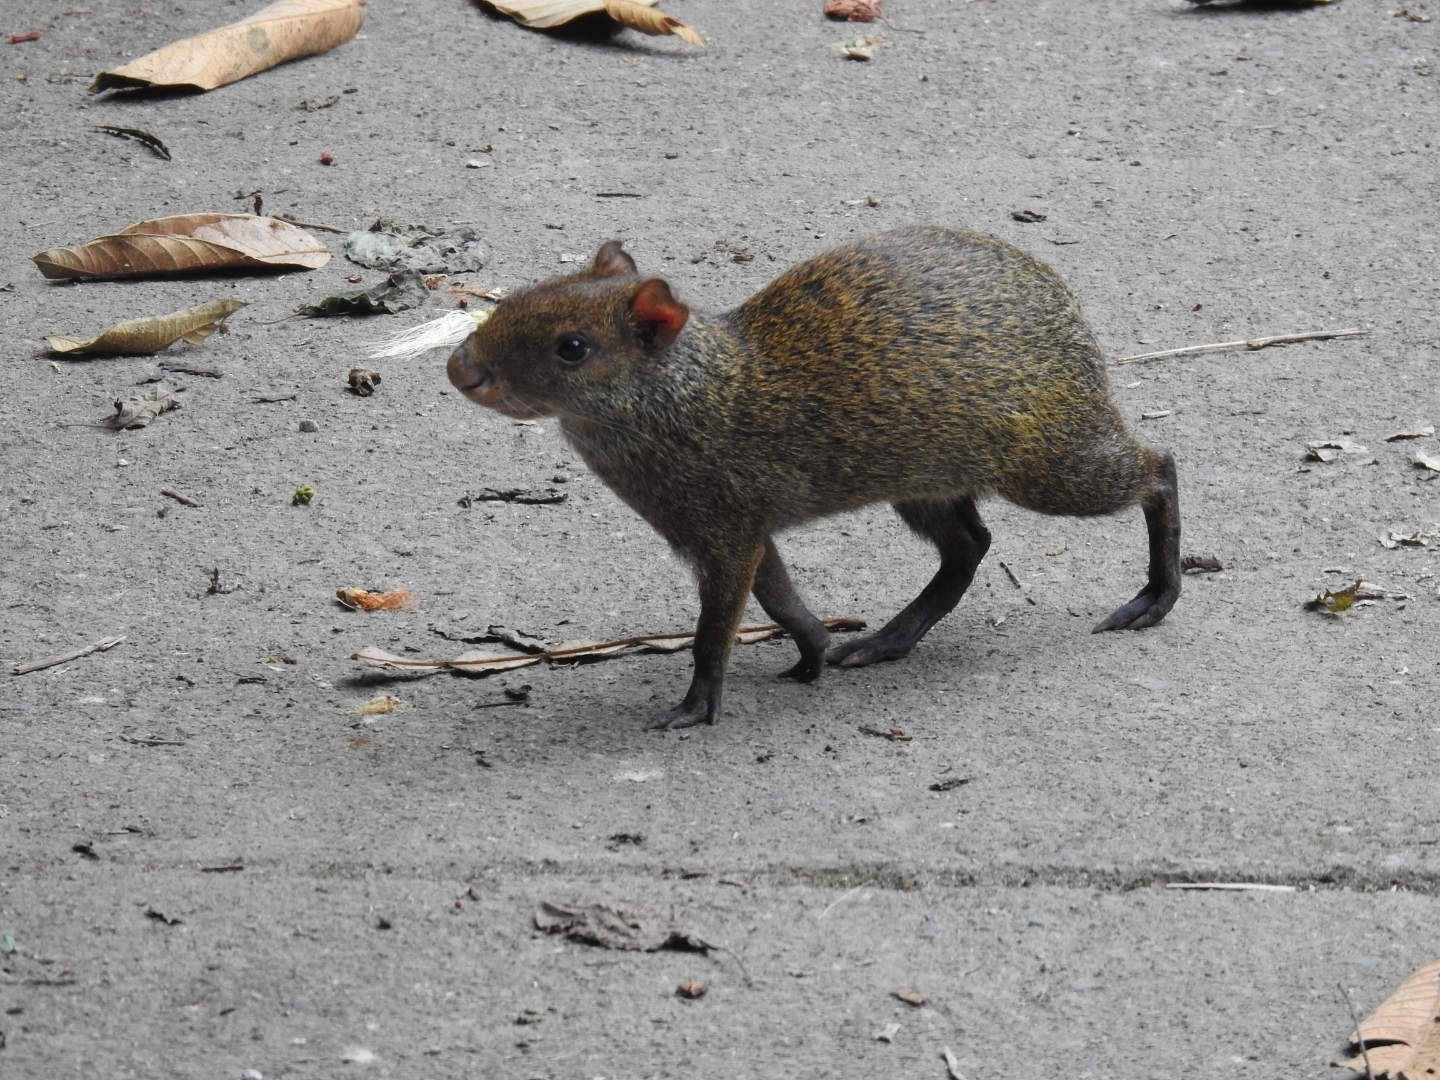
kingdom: Animalia
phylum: Chordata
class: Mammalia
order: Rodentia
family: Dasyproctidae
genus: Dasyprocta
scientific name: Dasyprocta punctata
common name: Central american agouti
